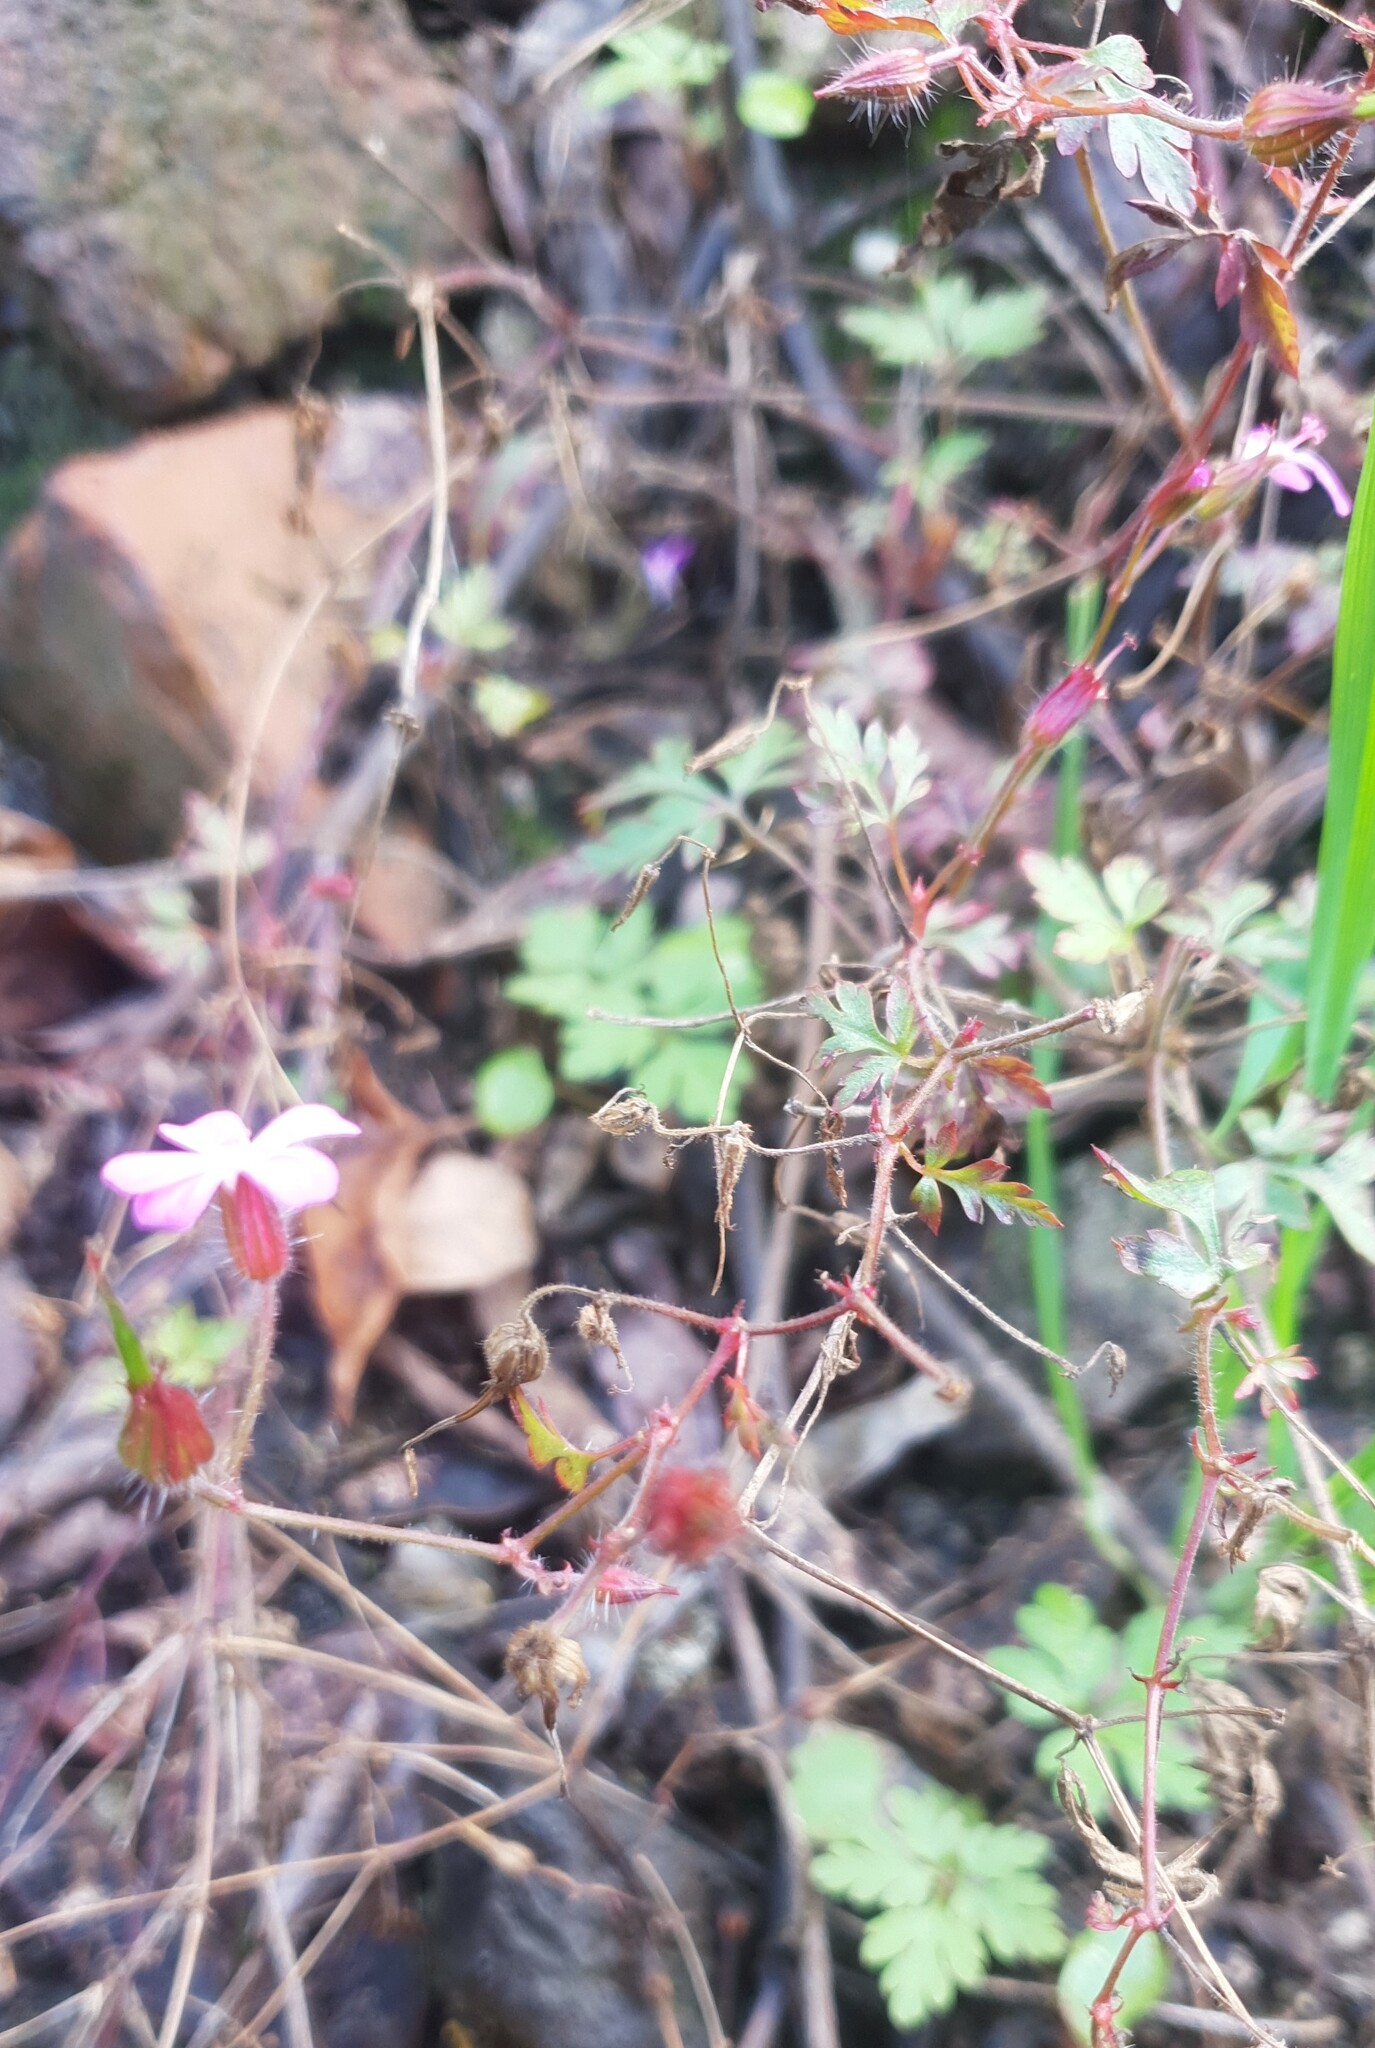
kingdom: Plantae
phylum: Tracheophyta
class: Magnoliopsida
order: Geraniales
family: Geraniaceae
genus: Geranium
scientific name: Geranium robertianum
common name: Herb-robert
